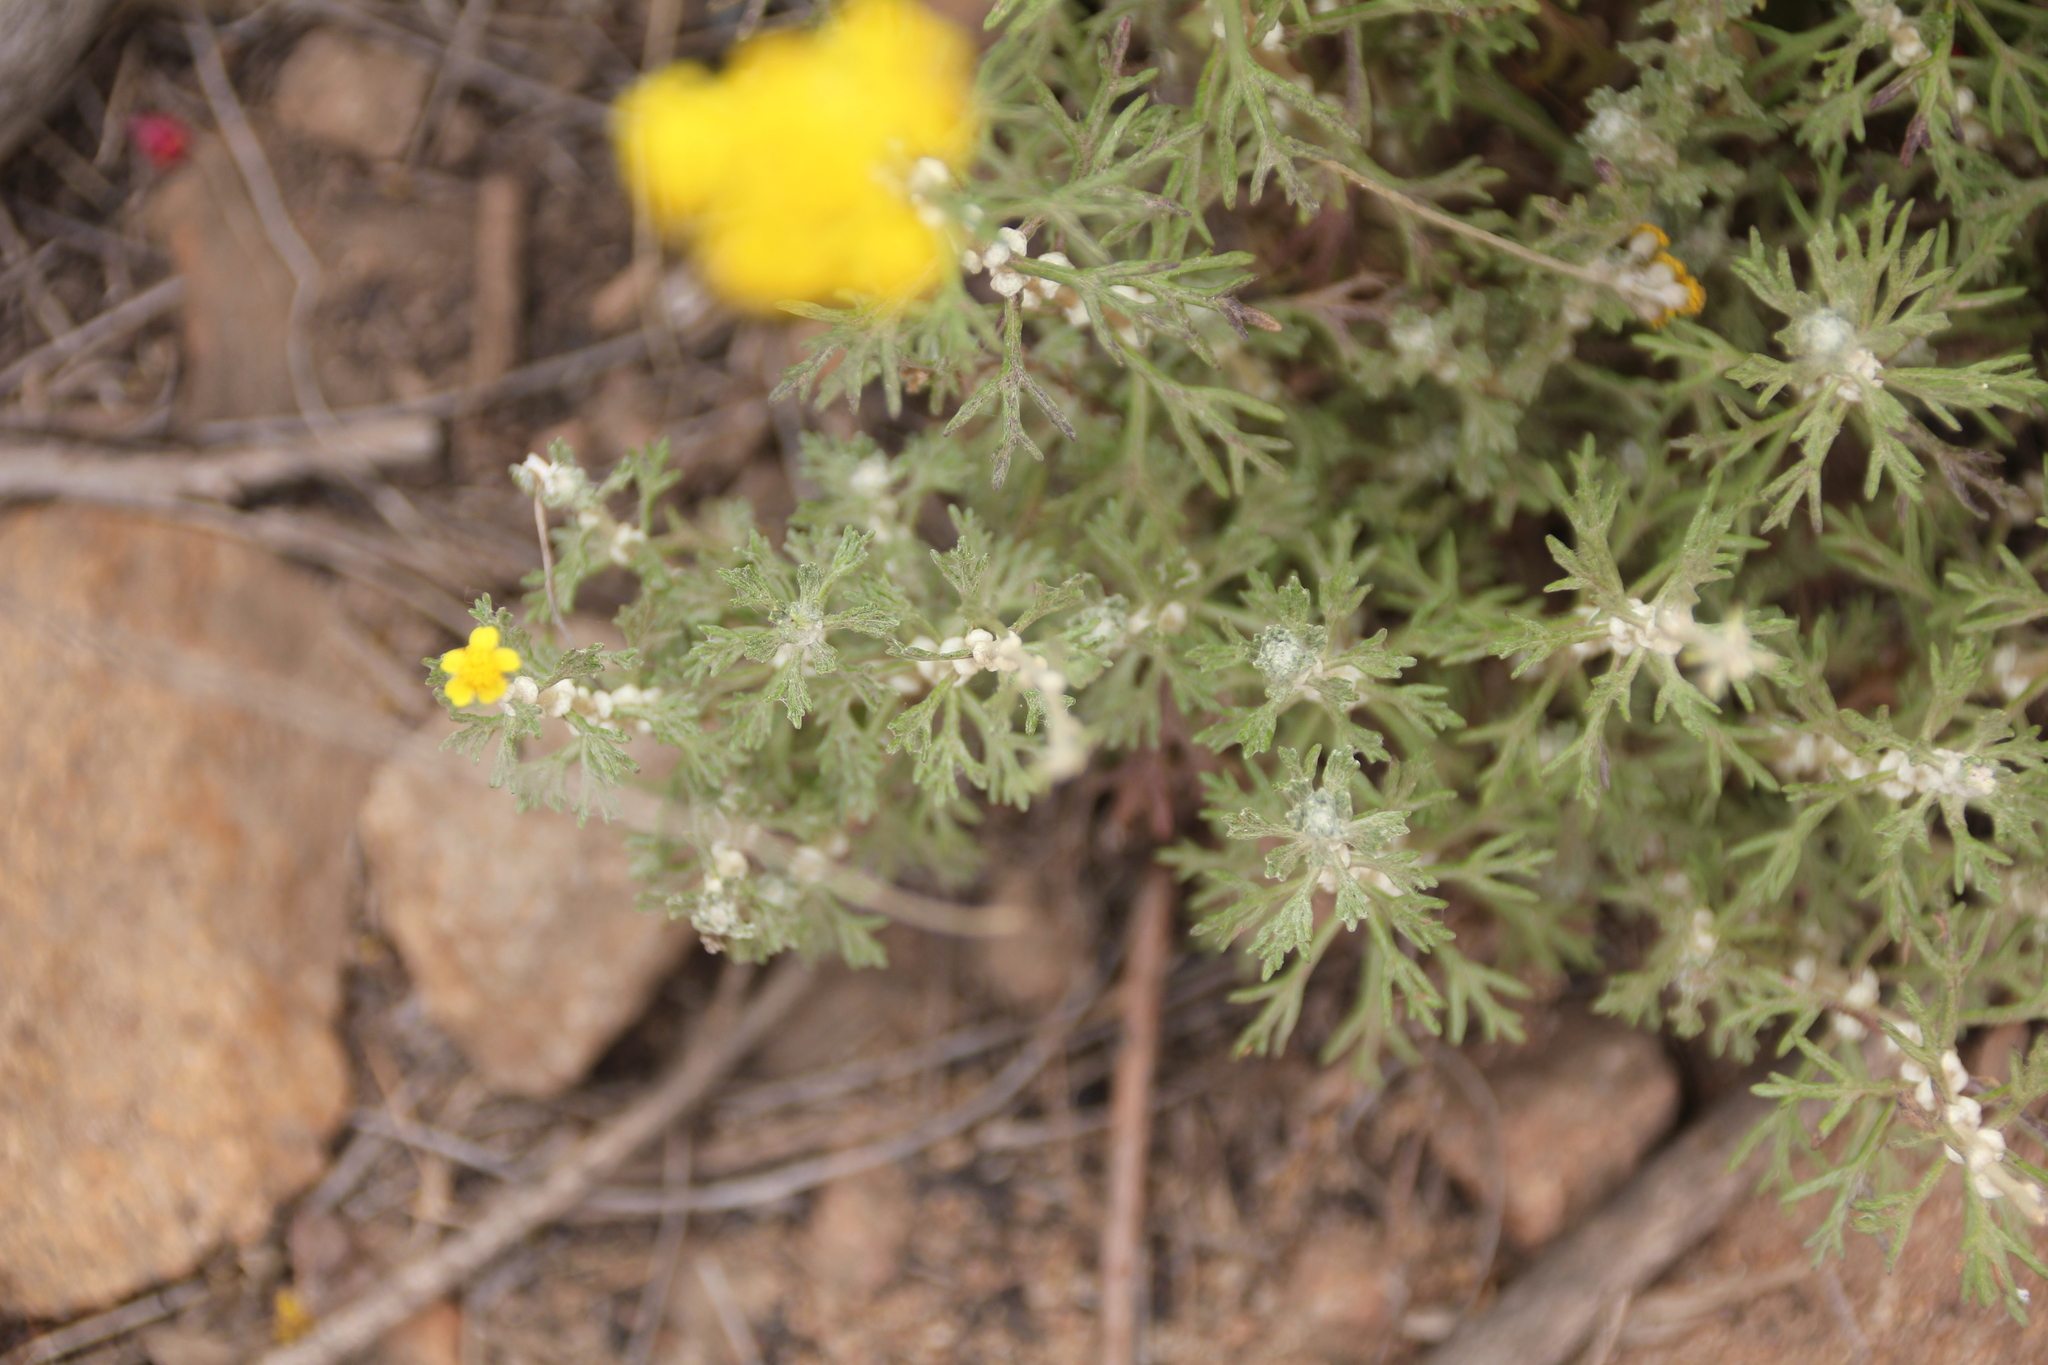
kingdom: Plantae
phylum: Tracheophyta
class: Magnoliopsida
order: Asterales
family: Asteraceae
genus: Eriophyllum
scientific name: Eriophyllum confertiflorum
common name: Golden-yarrow
